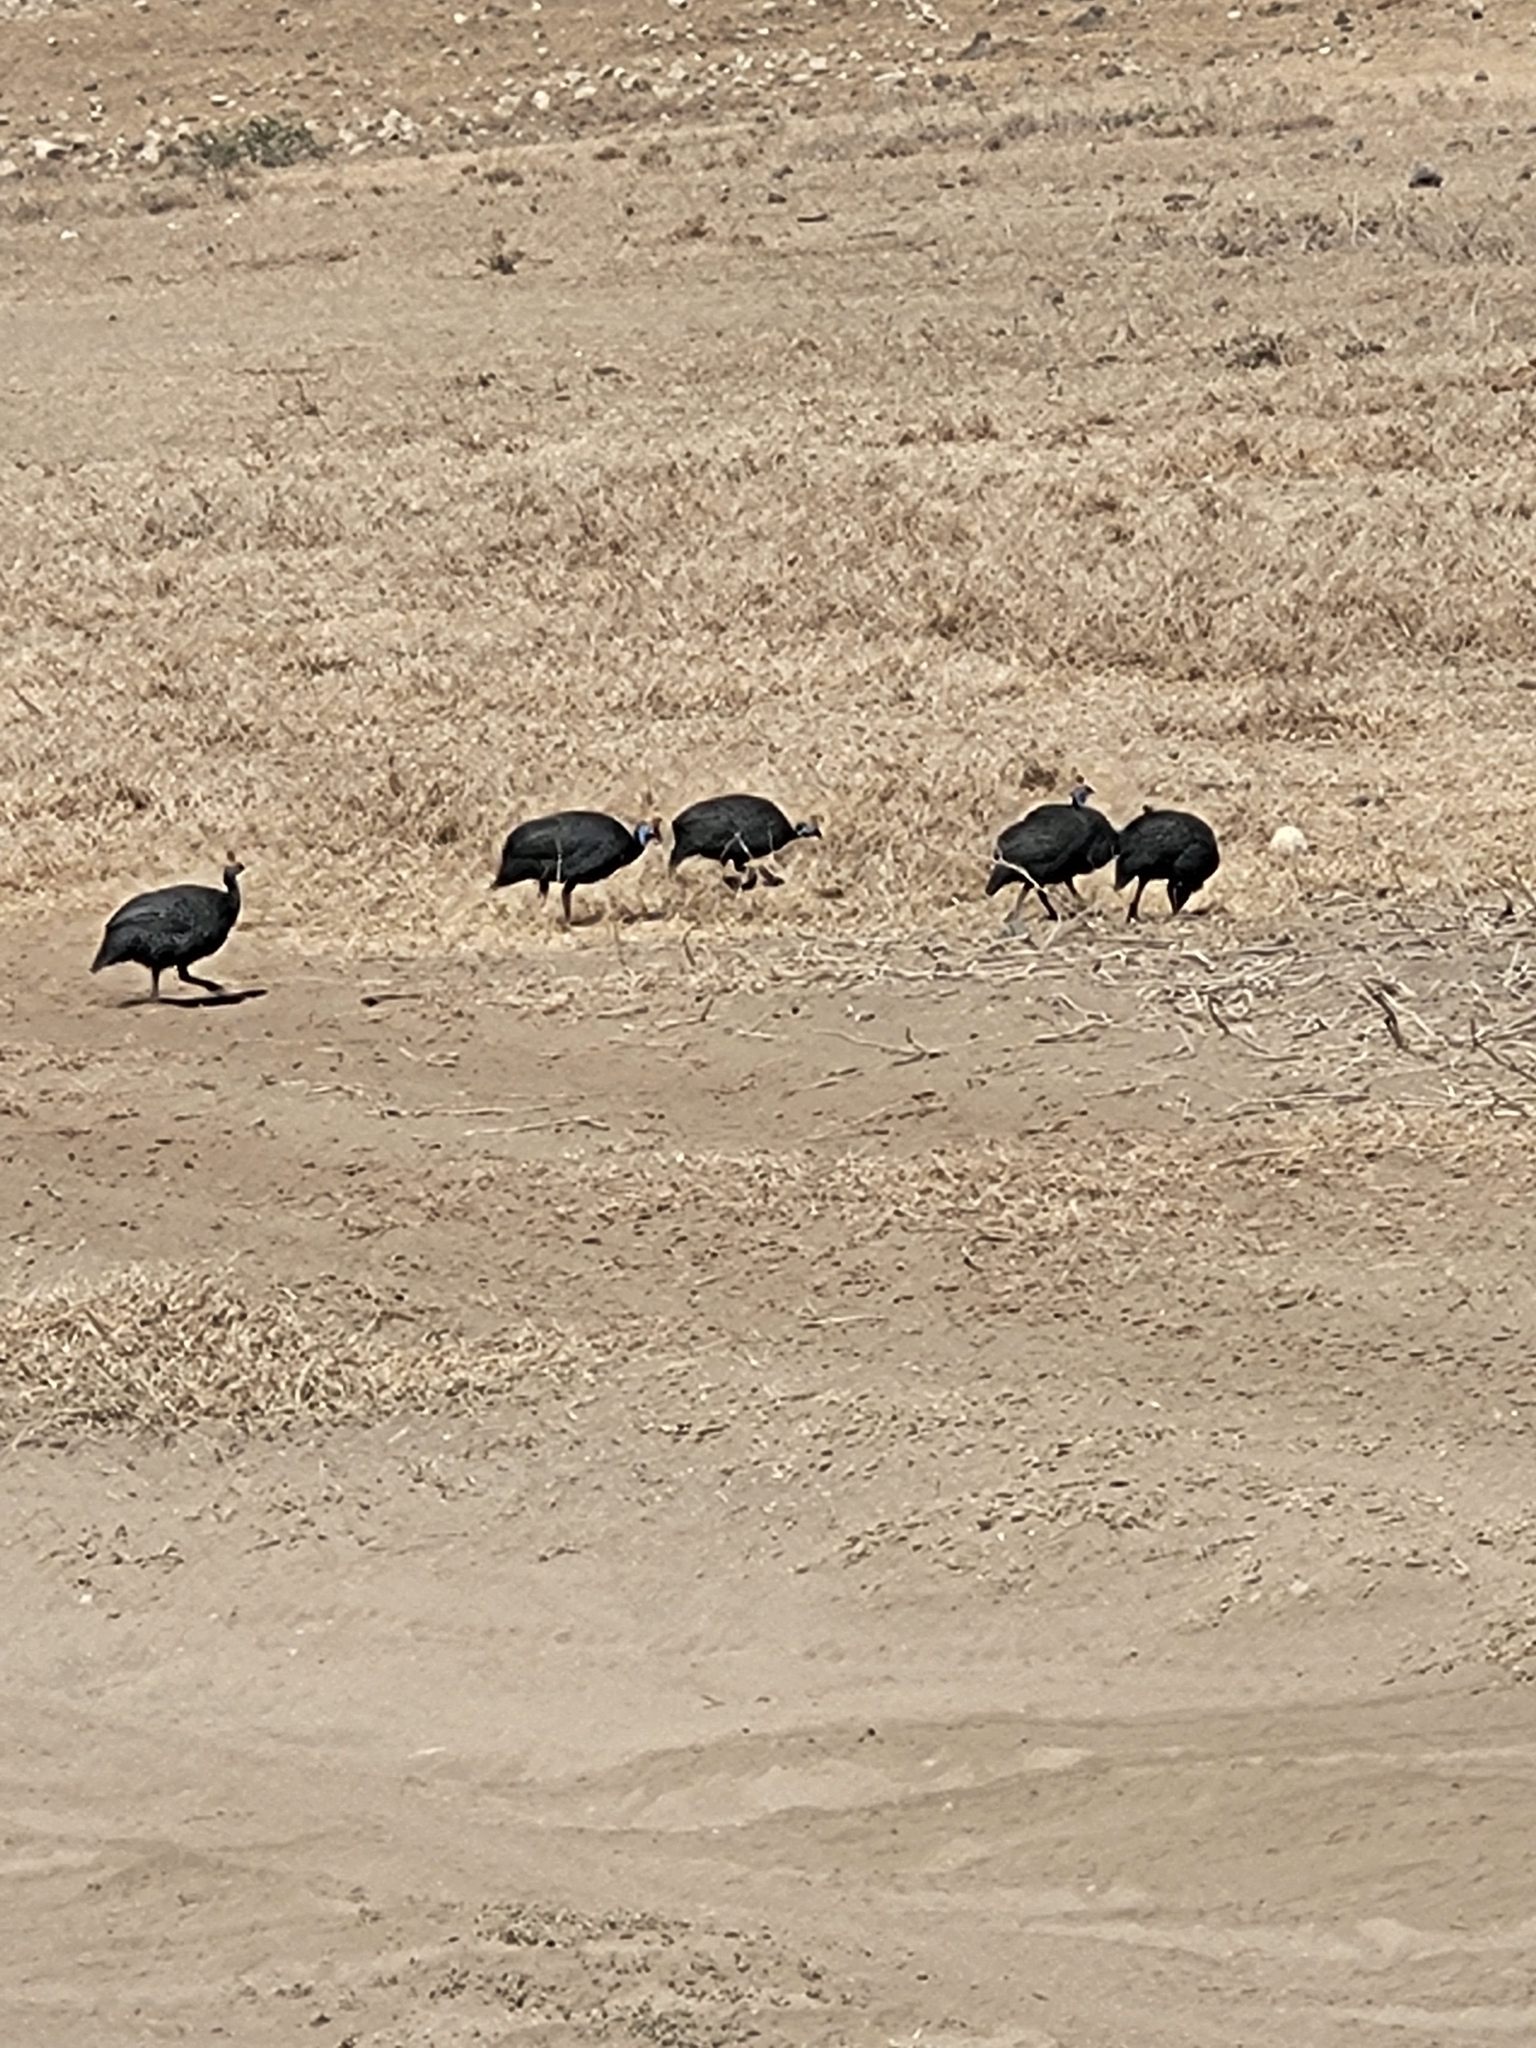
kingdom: Animalia
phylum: Chordata
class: Aves
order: Galliformes
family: Numididae
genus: Numida
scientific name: Numida meleagris
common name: Helmeted guineafowl
